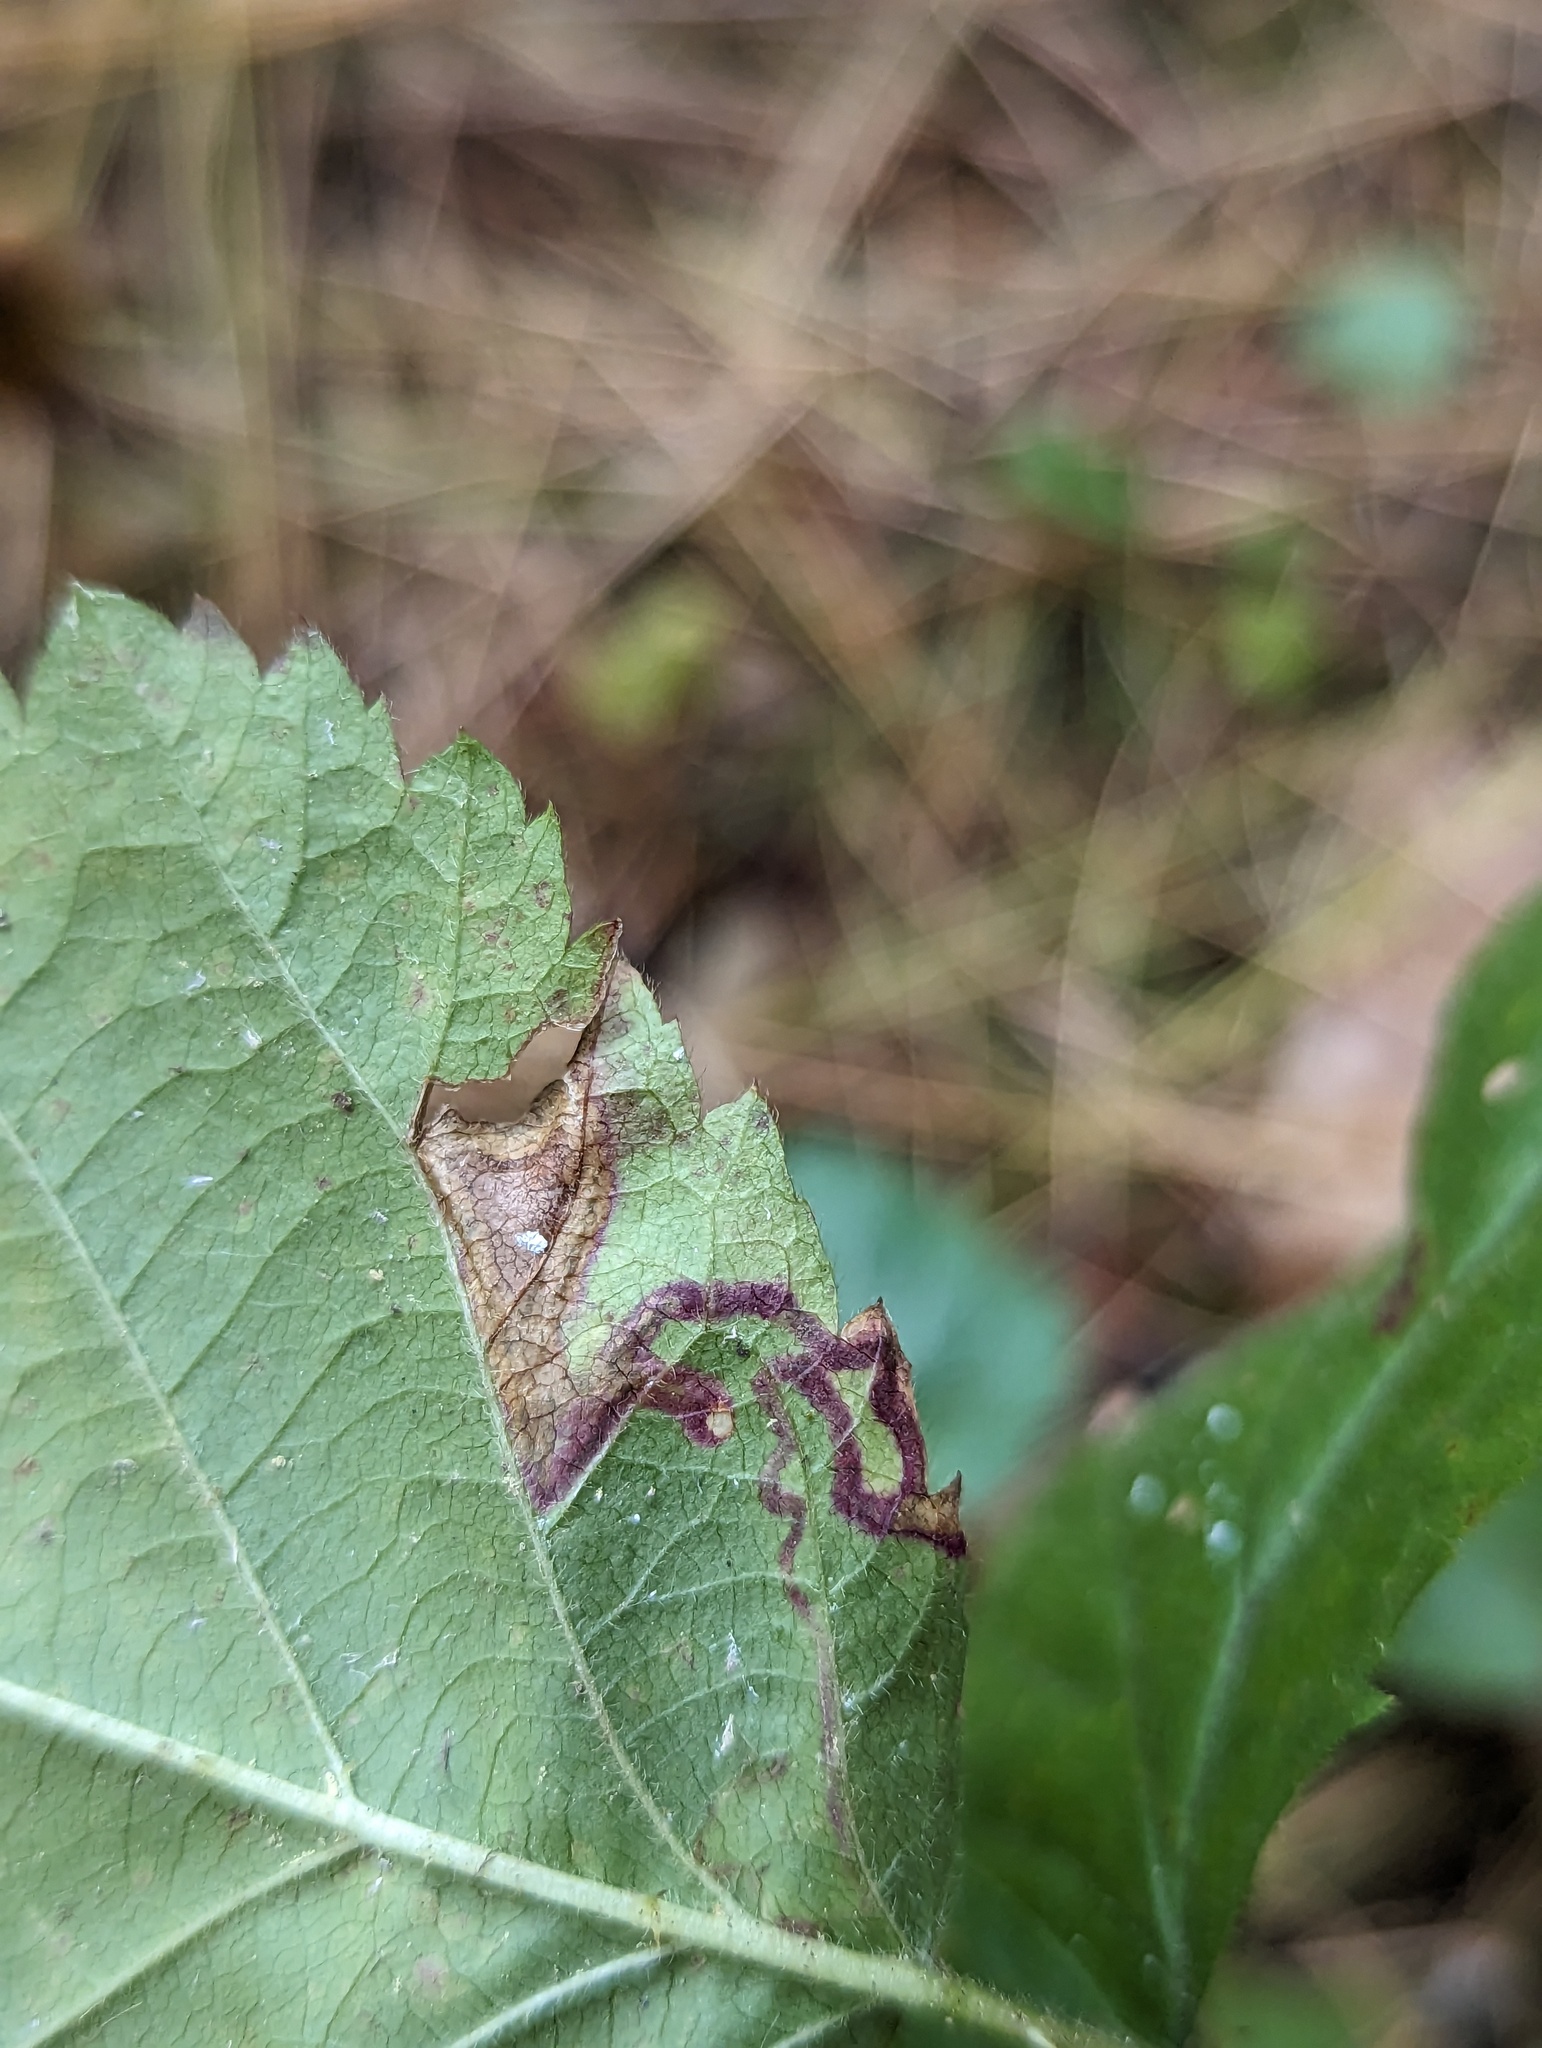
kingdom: Animalia
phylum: Arthropoda
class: Insecta
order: Lepidoptera
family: Nepticulidae
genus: Stigmella
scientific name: Stigmella villosella
